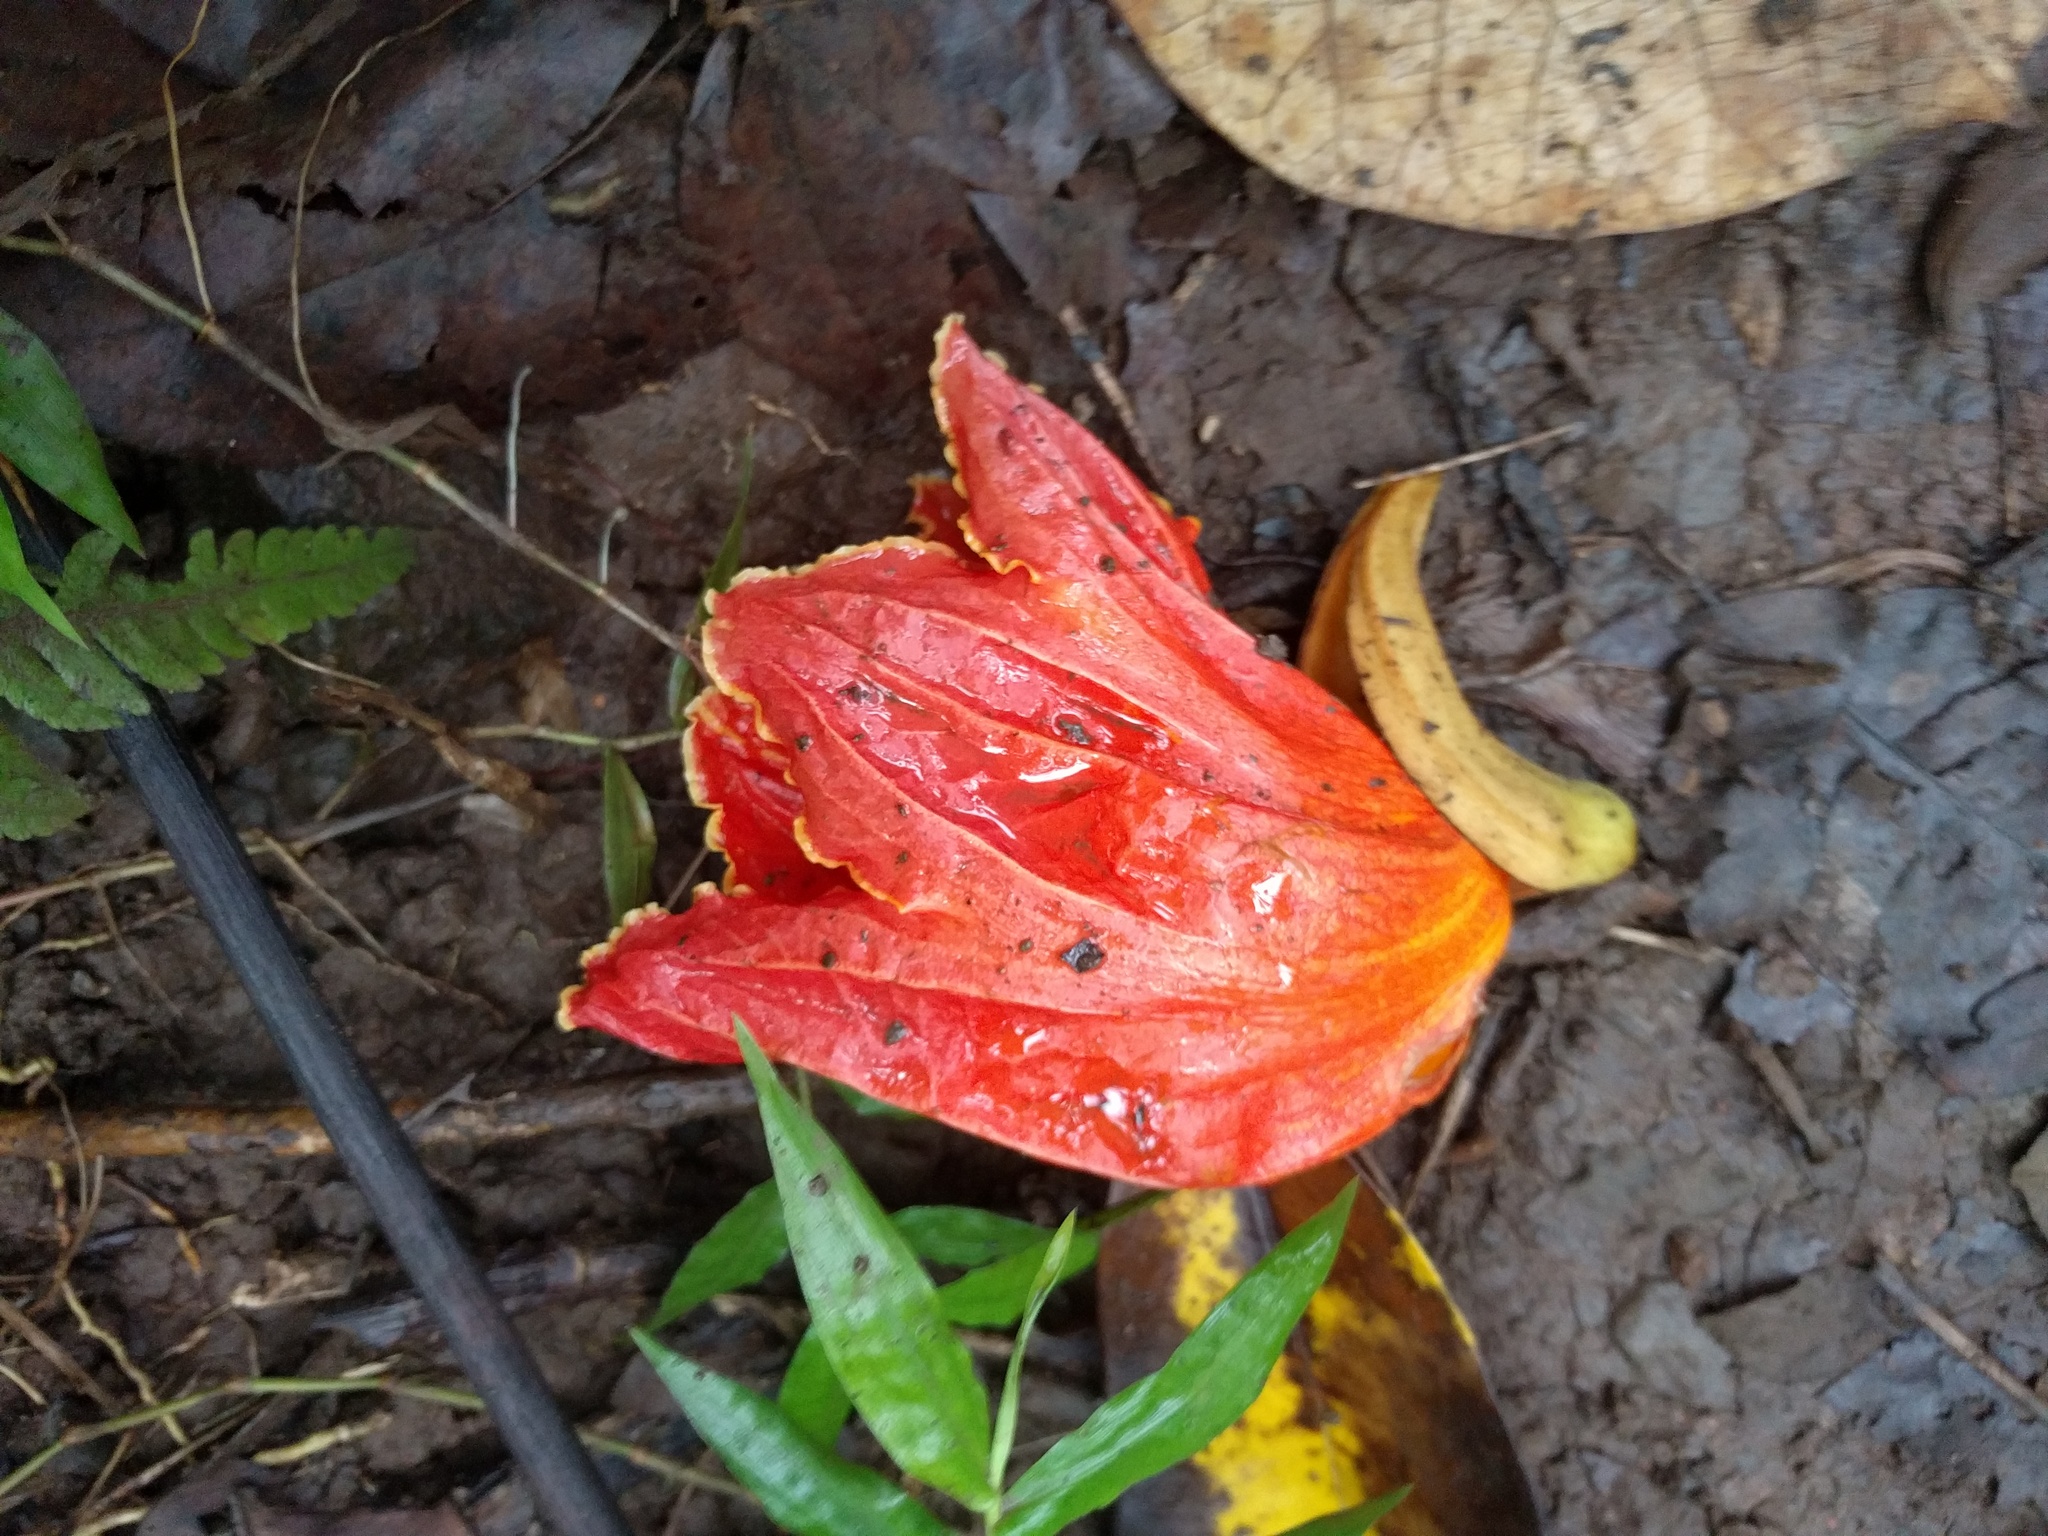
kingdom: Plantae
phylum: Tracheophyta
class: Magnoliopsida
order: Lamiales
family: Bignoniaceae
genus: Spathodea
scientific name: Spathodea campanulata
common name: African tuliptree
